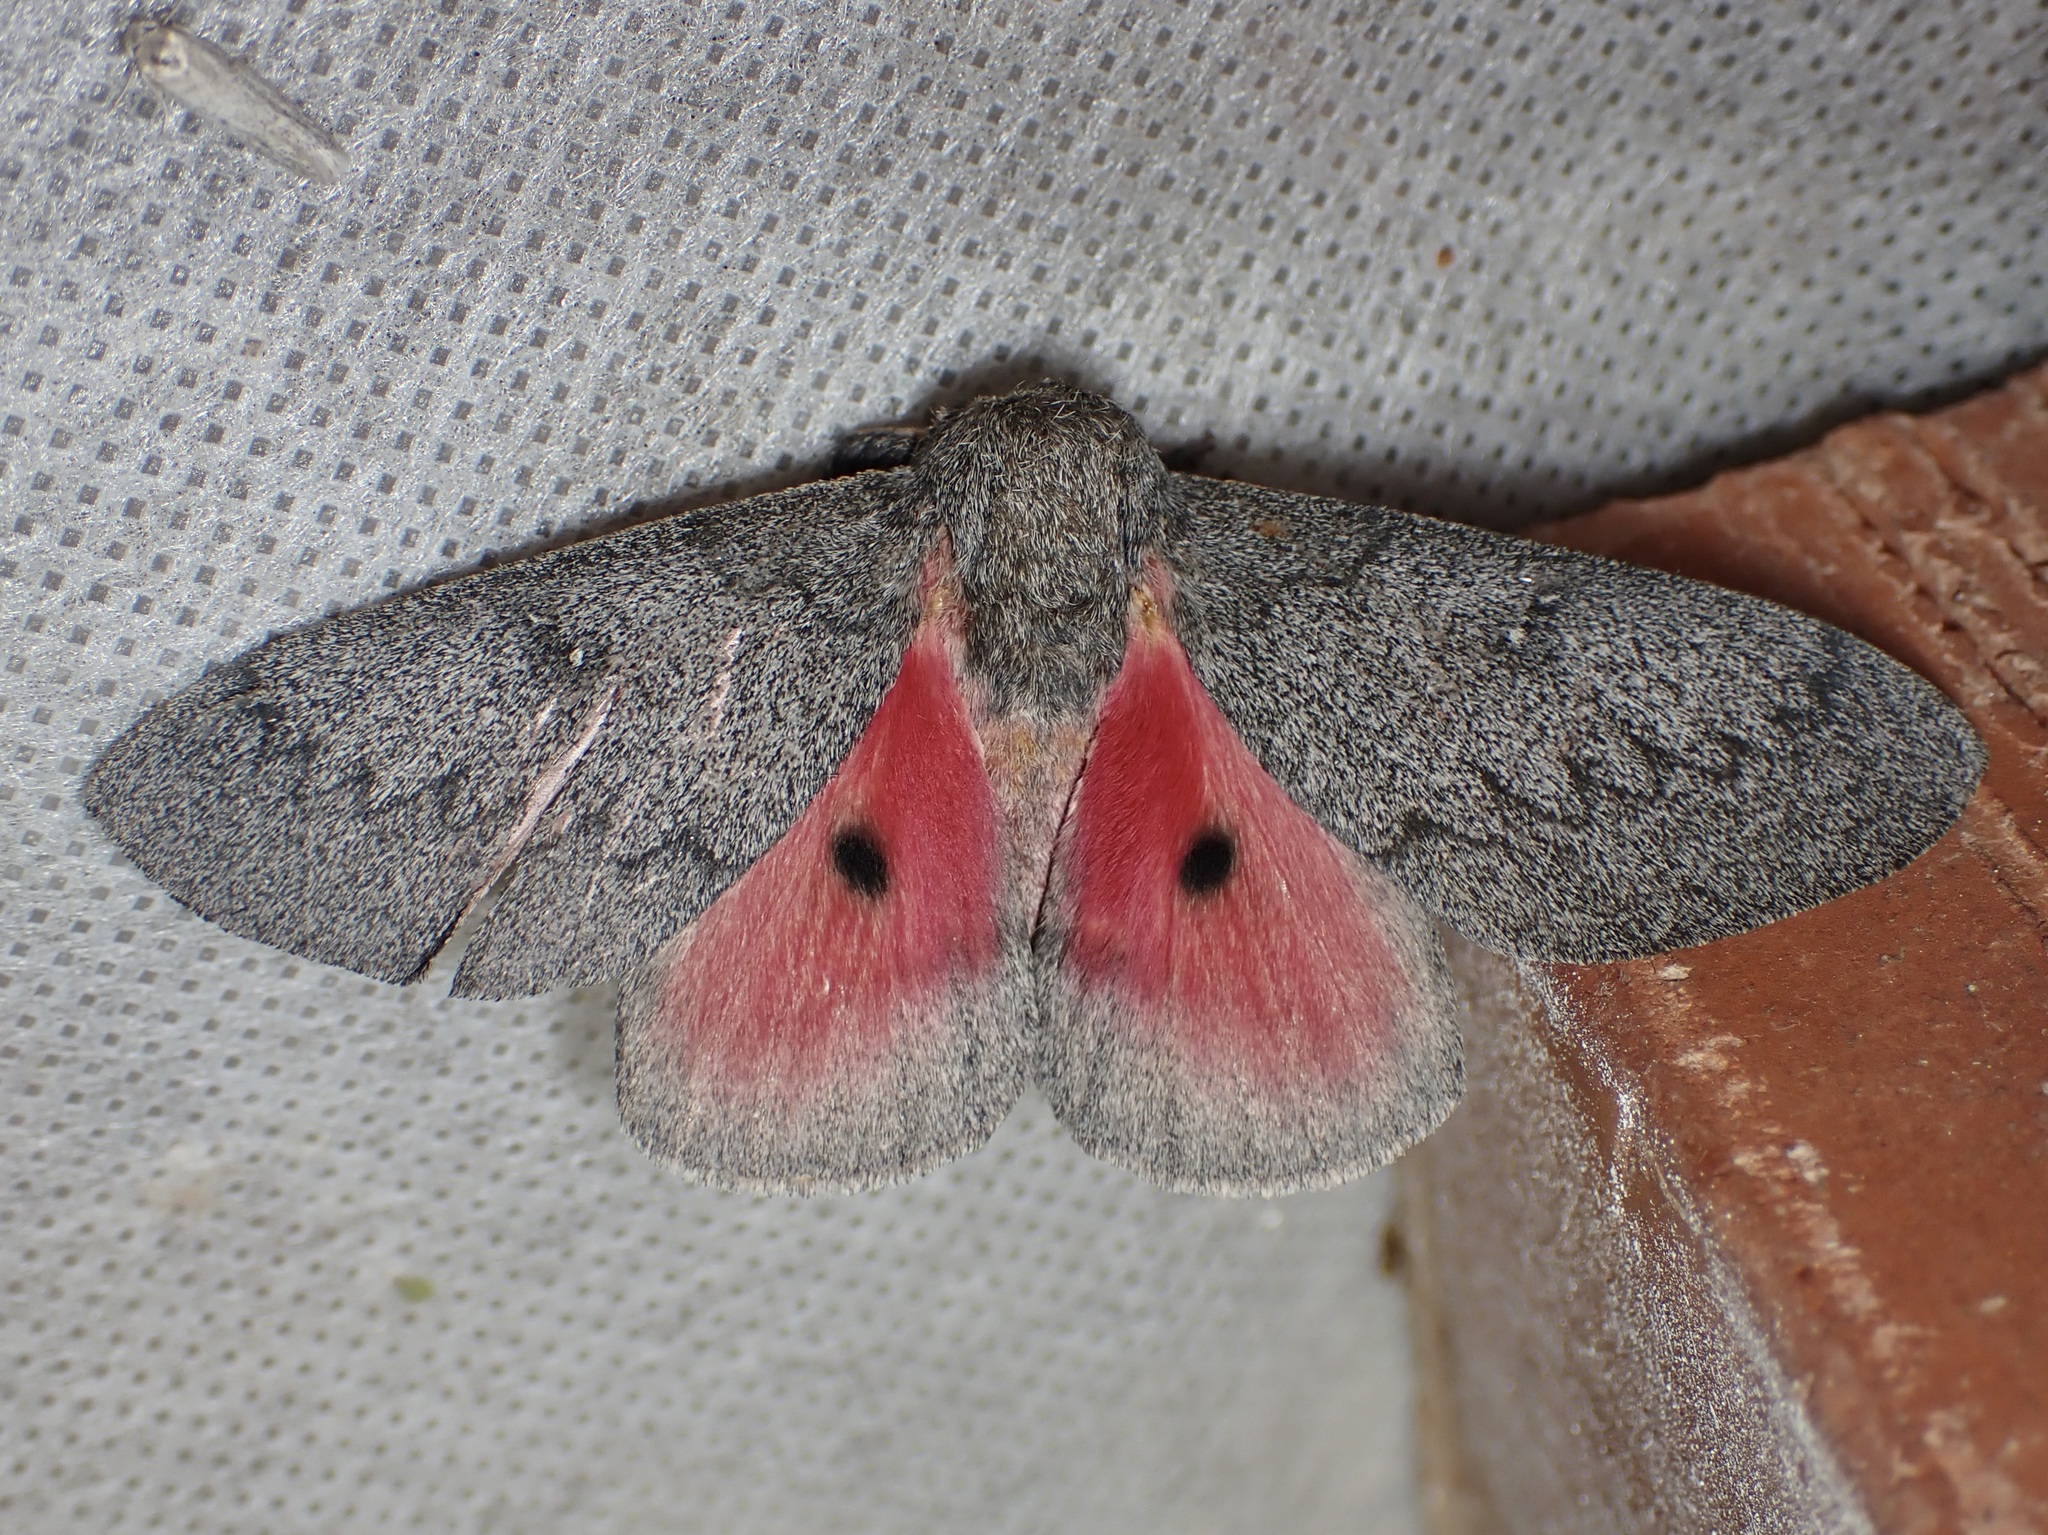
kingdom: Animalia
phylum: Arthropoda
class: Insecta
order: Lepidoptera
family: Saturniidae
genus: Syssphinx
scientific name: Syssphinx hubbardi
